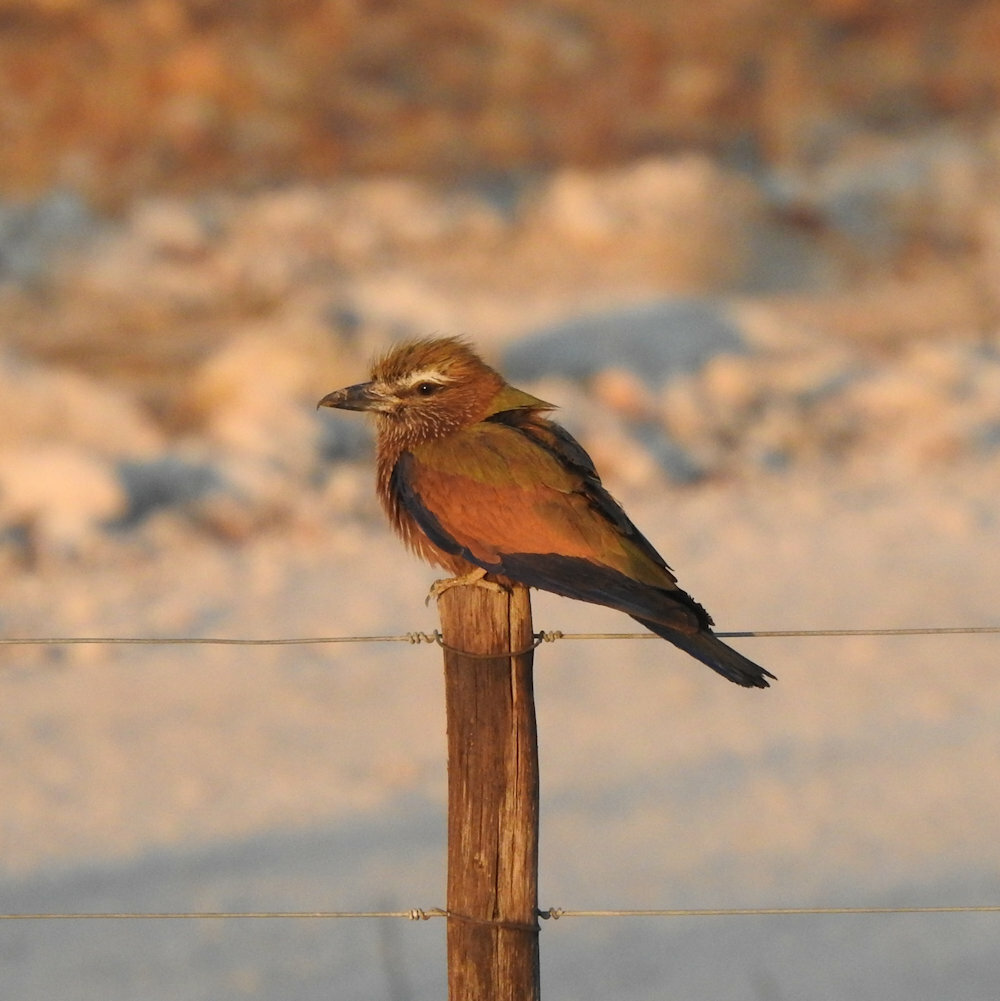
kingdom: Animalia
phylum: Chordata
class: Aves
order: Coraciiformes
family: Coraciidae
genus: Coracias
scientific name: Coracias naevius
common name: Purple roller
